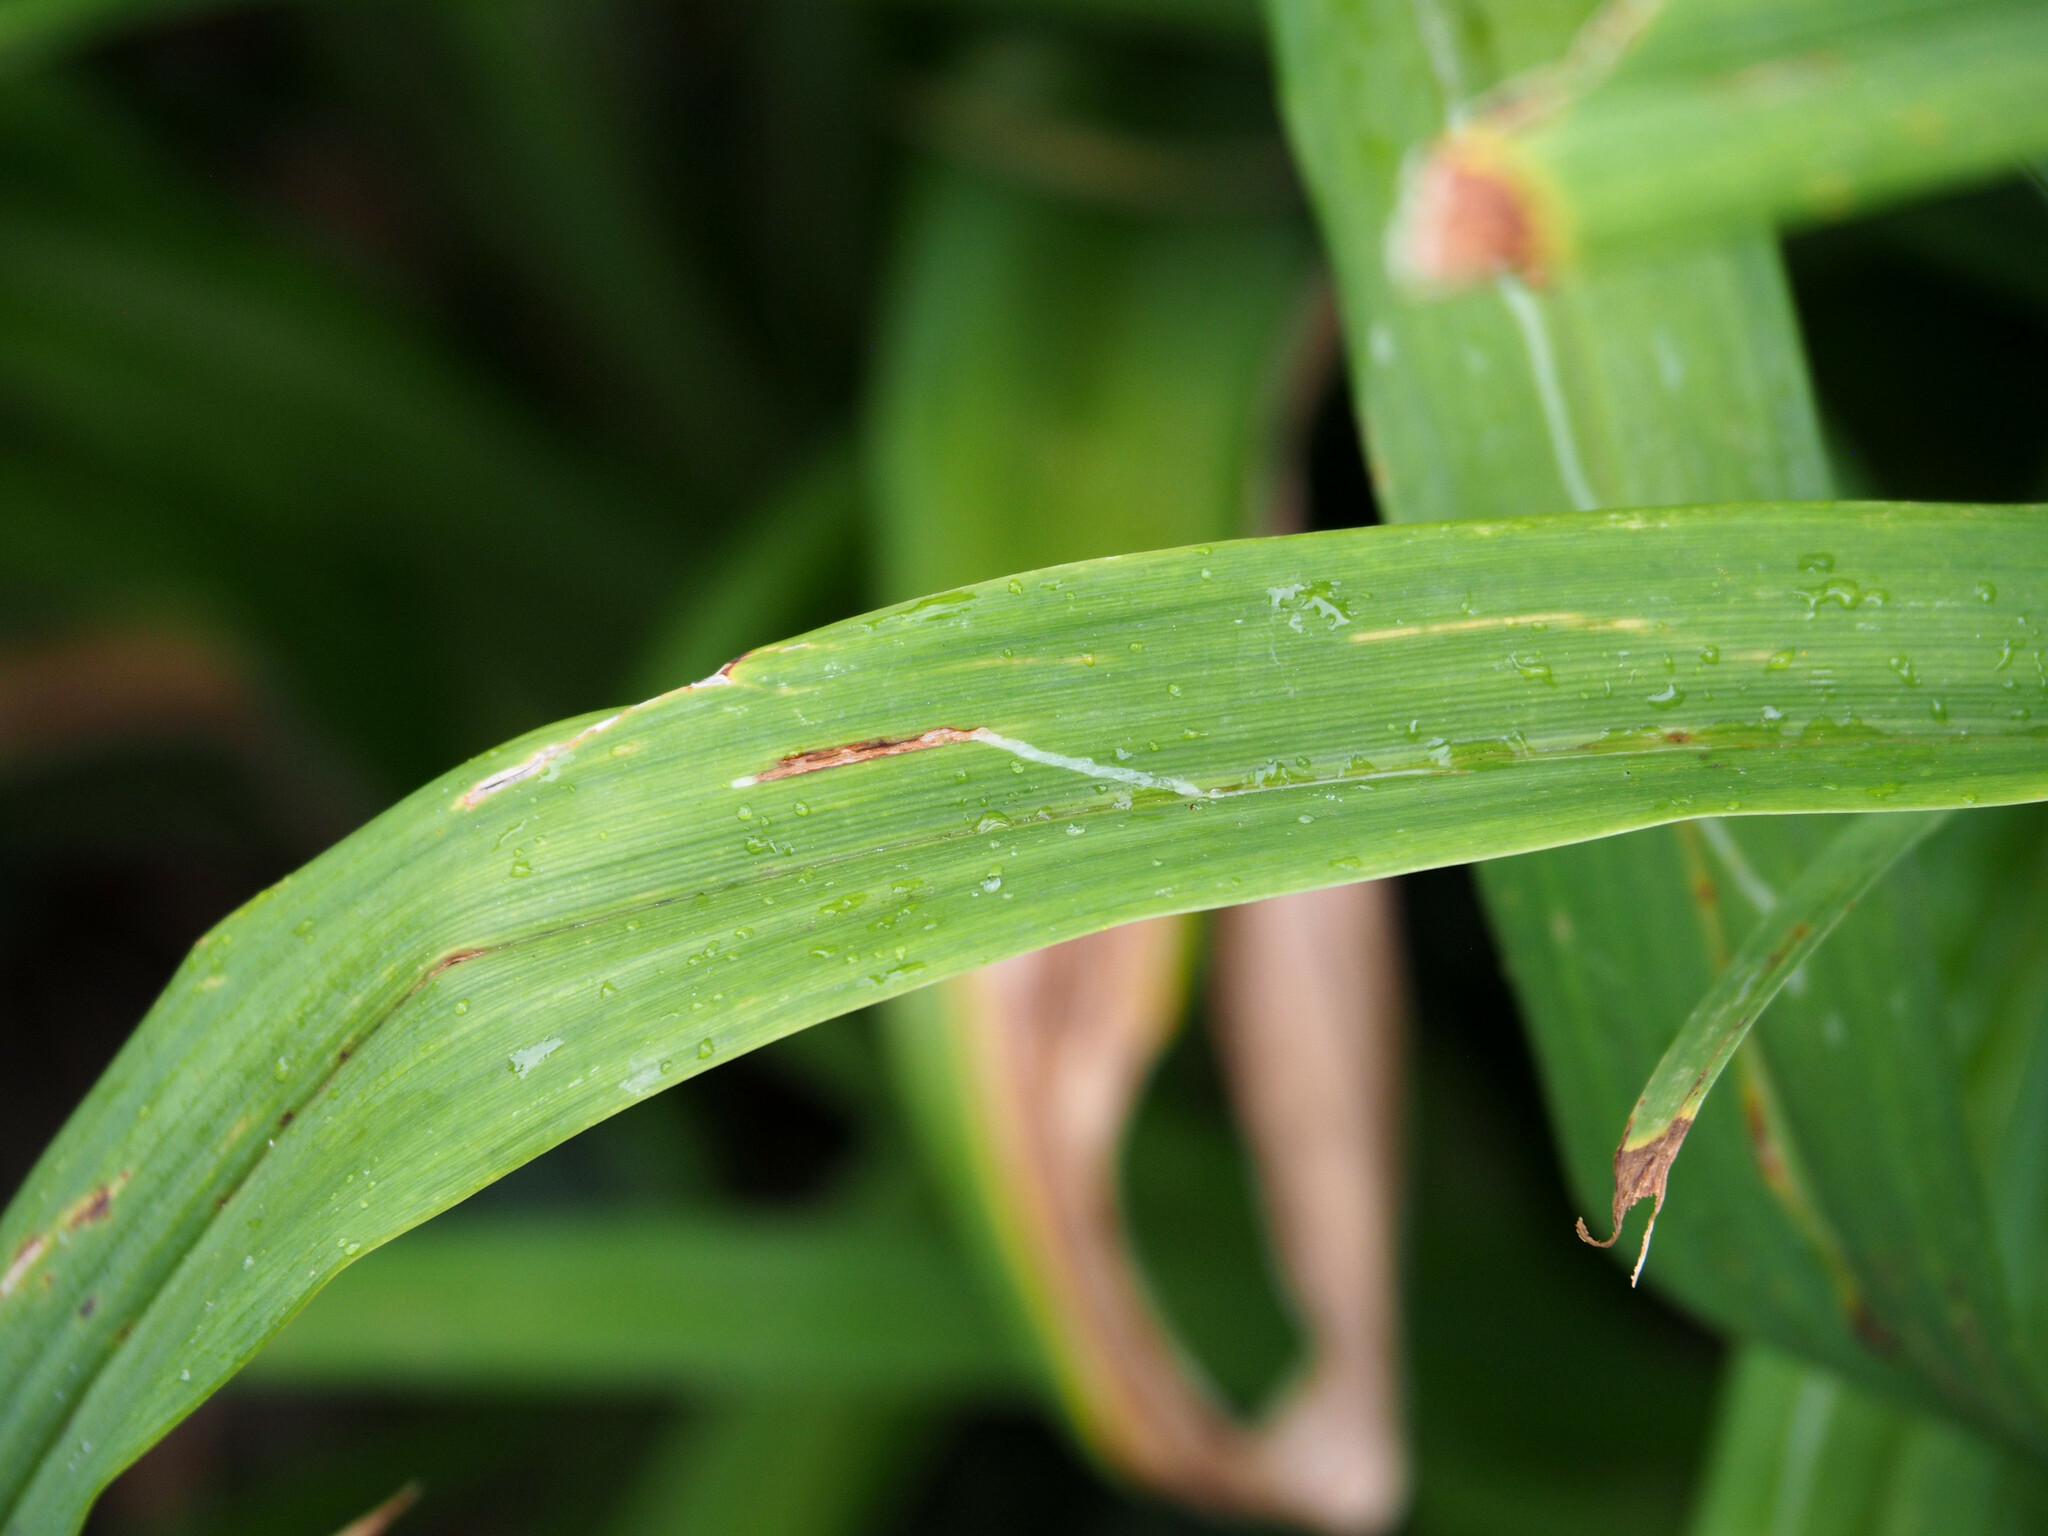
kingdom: Animalia
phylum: Arthropoda
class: Insecta
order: Diptera
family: Agromyzidae
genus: Ophiomyia
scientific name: Ophiomyia kwansonis
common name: Daylily leafminer
